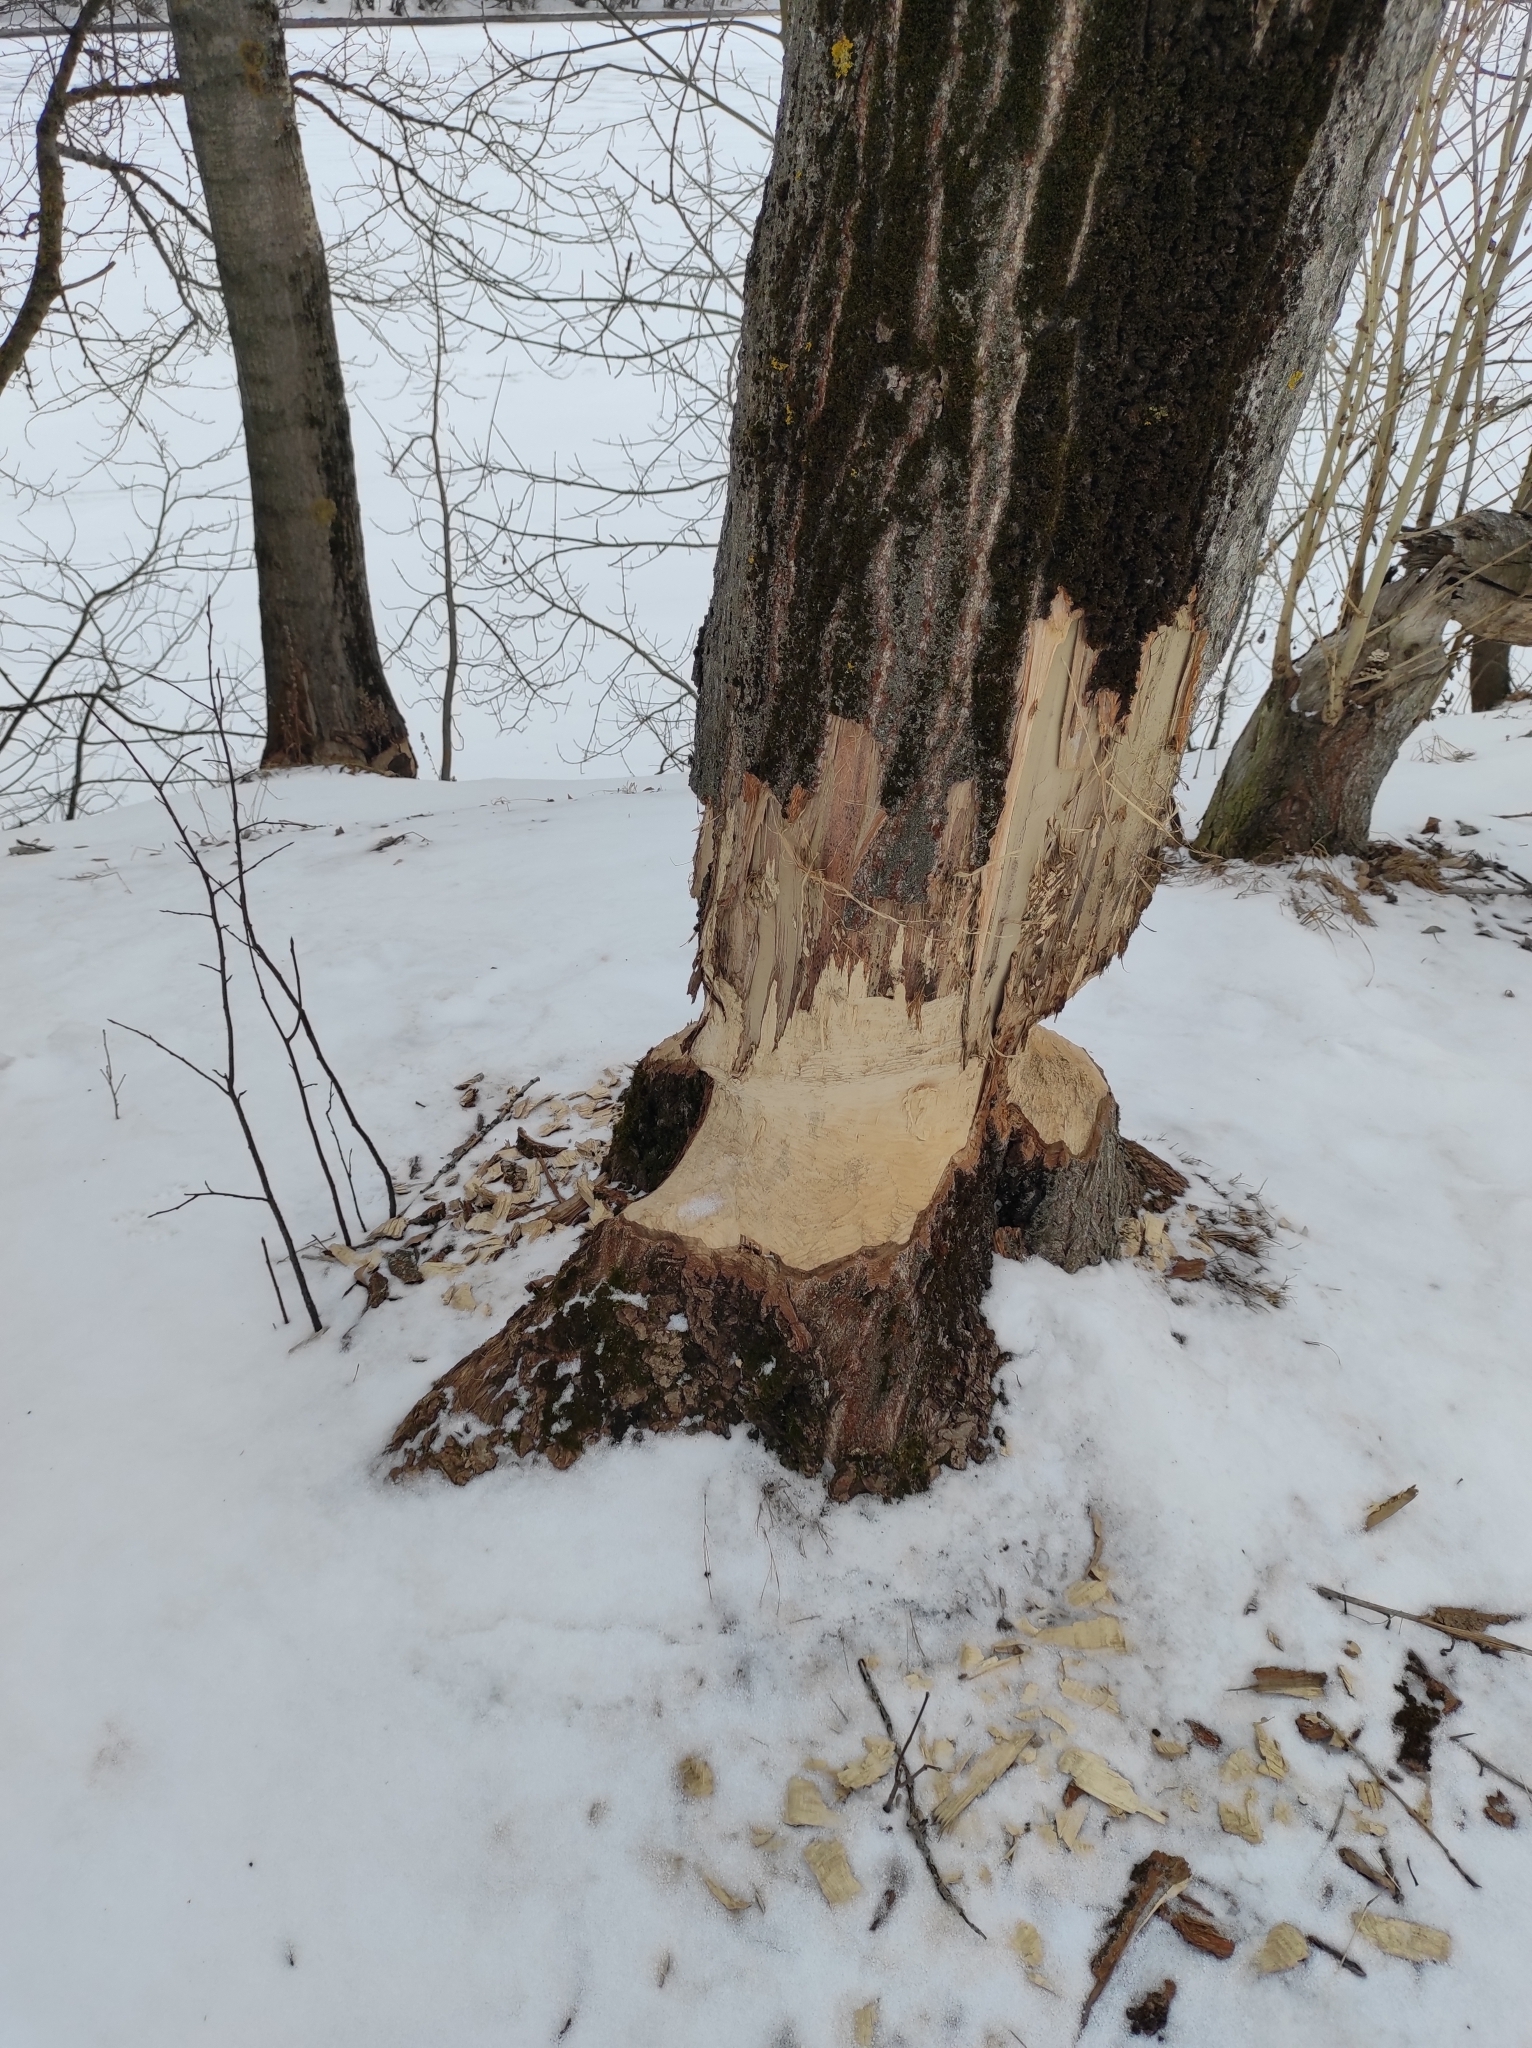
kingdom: Animalia
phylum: Chordata
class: Mammalia
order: Rodentia
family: Castoridae
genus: Castor
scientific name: Castor fiber
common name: Eurasian beaver
